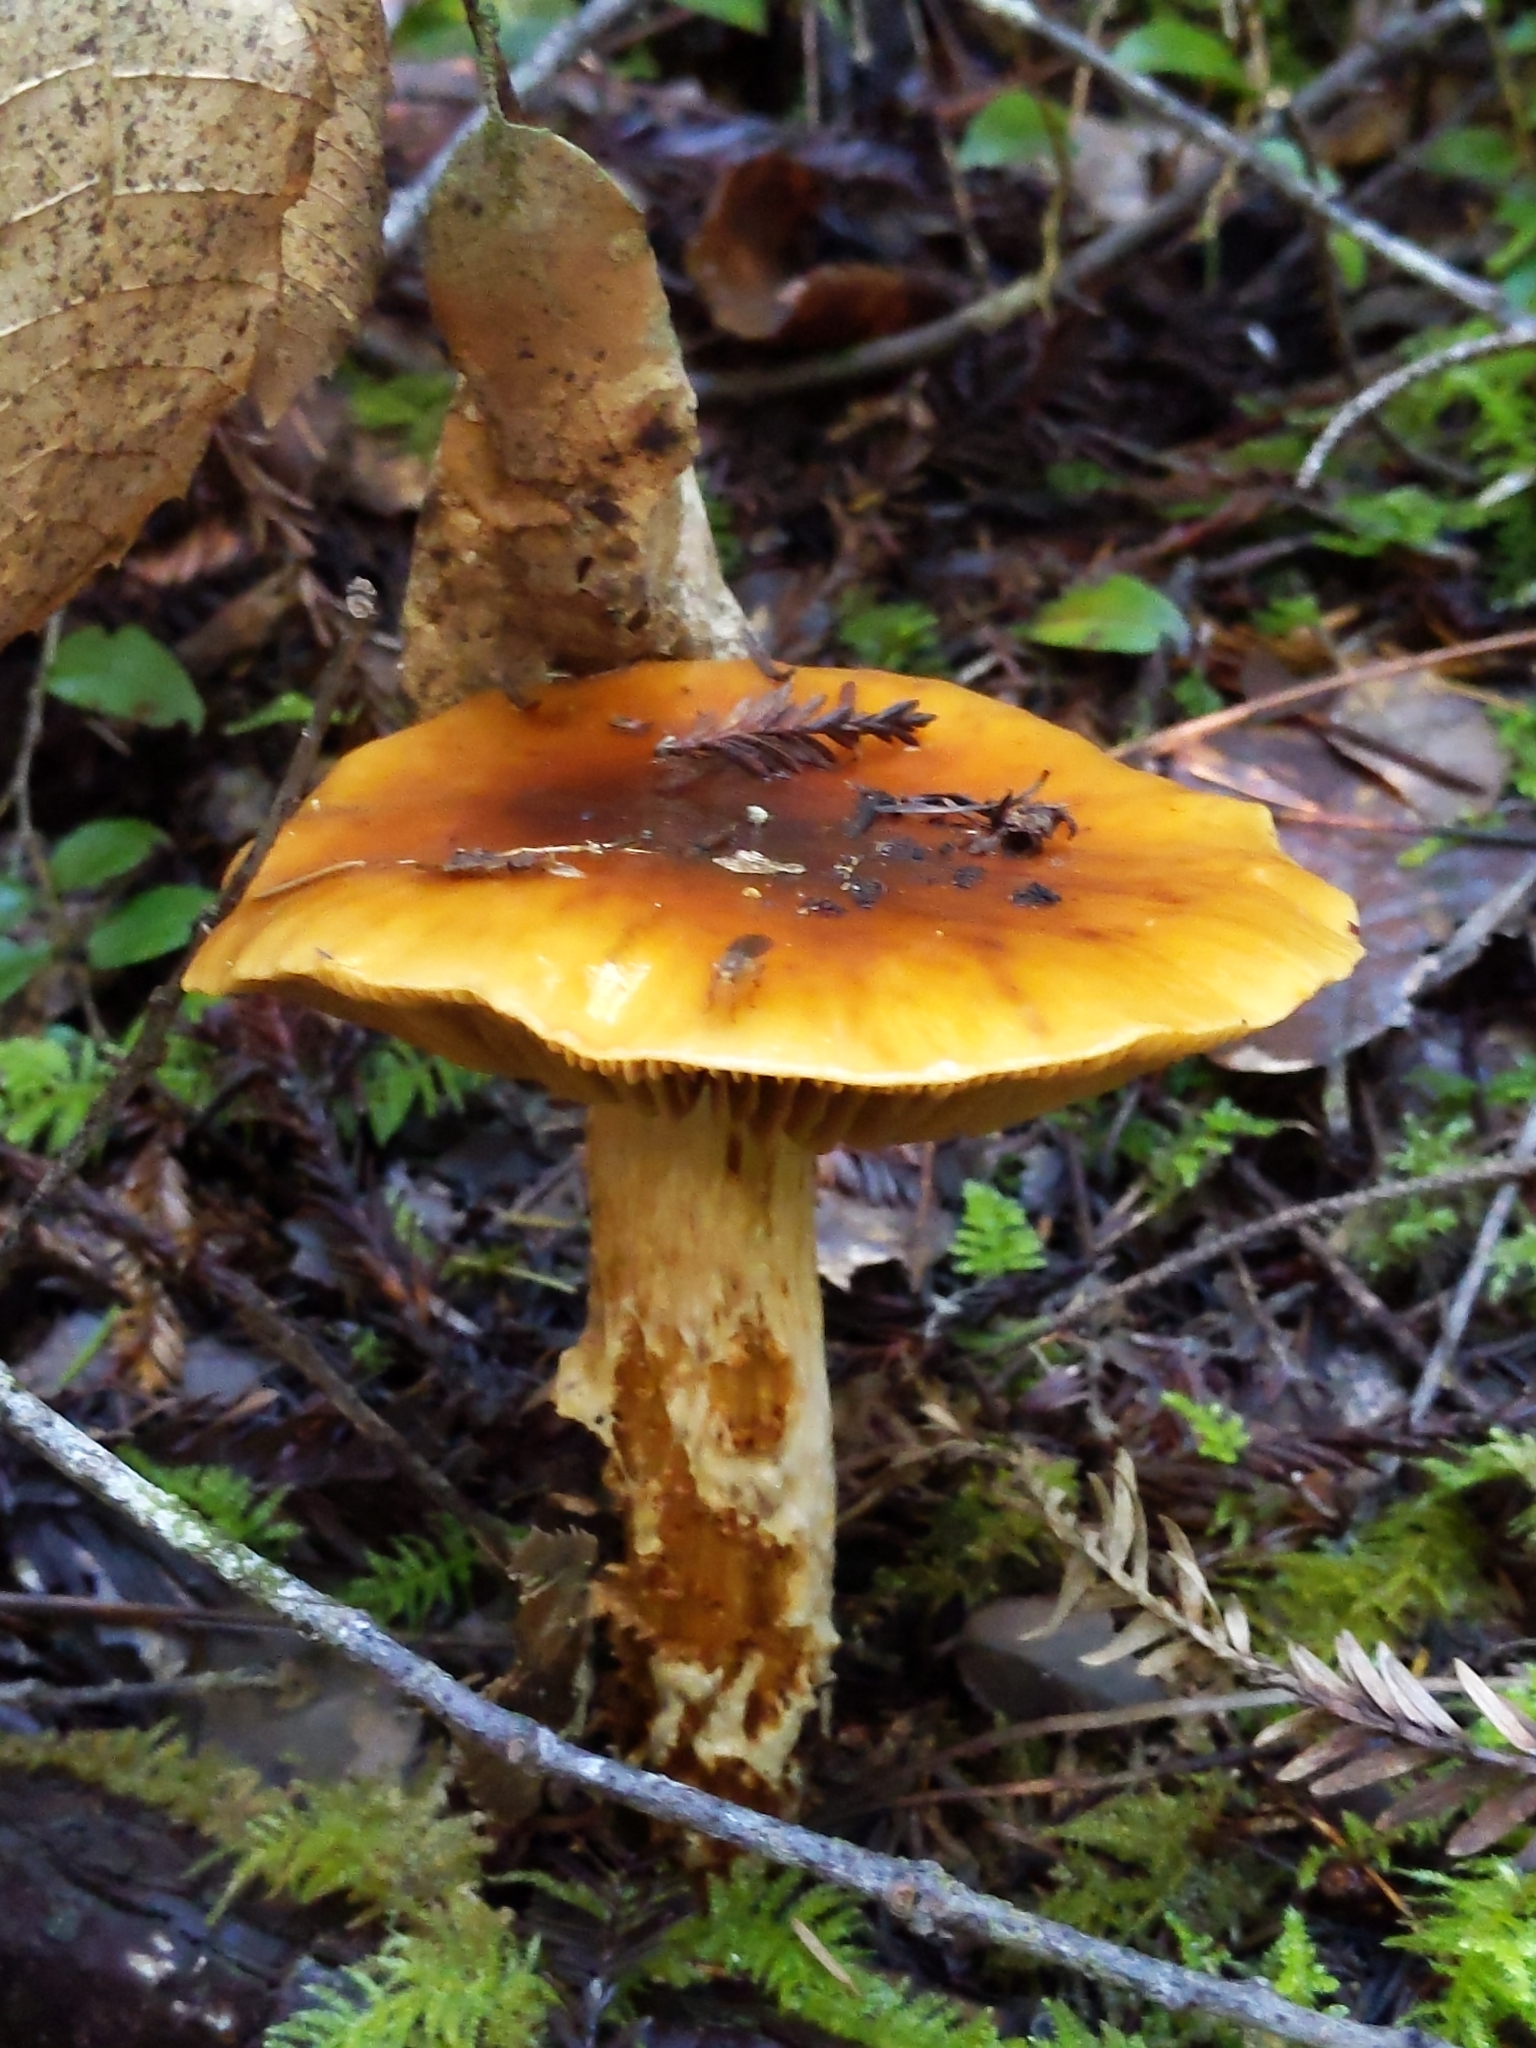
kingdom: Fungi
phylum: Basidiomycota
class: Agaricomycetes
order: Agaricales
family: Cortinariaceae
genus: Cortinarius
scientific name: Cortinarius mucosus
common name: Orange webcap
